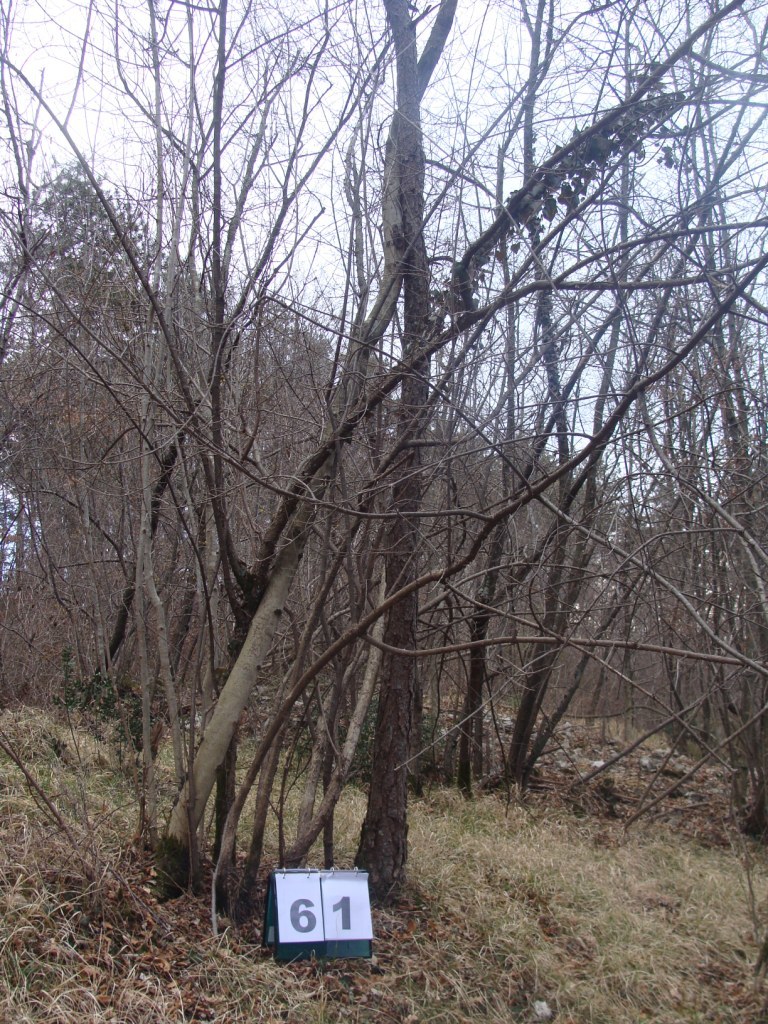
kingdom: Plantae
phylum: Tracheophyta
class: Magnoliopsida
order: Cornales
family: Cornaceae
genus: Cornus
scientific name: Cornus mas
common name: Cornelian-cherry
